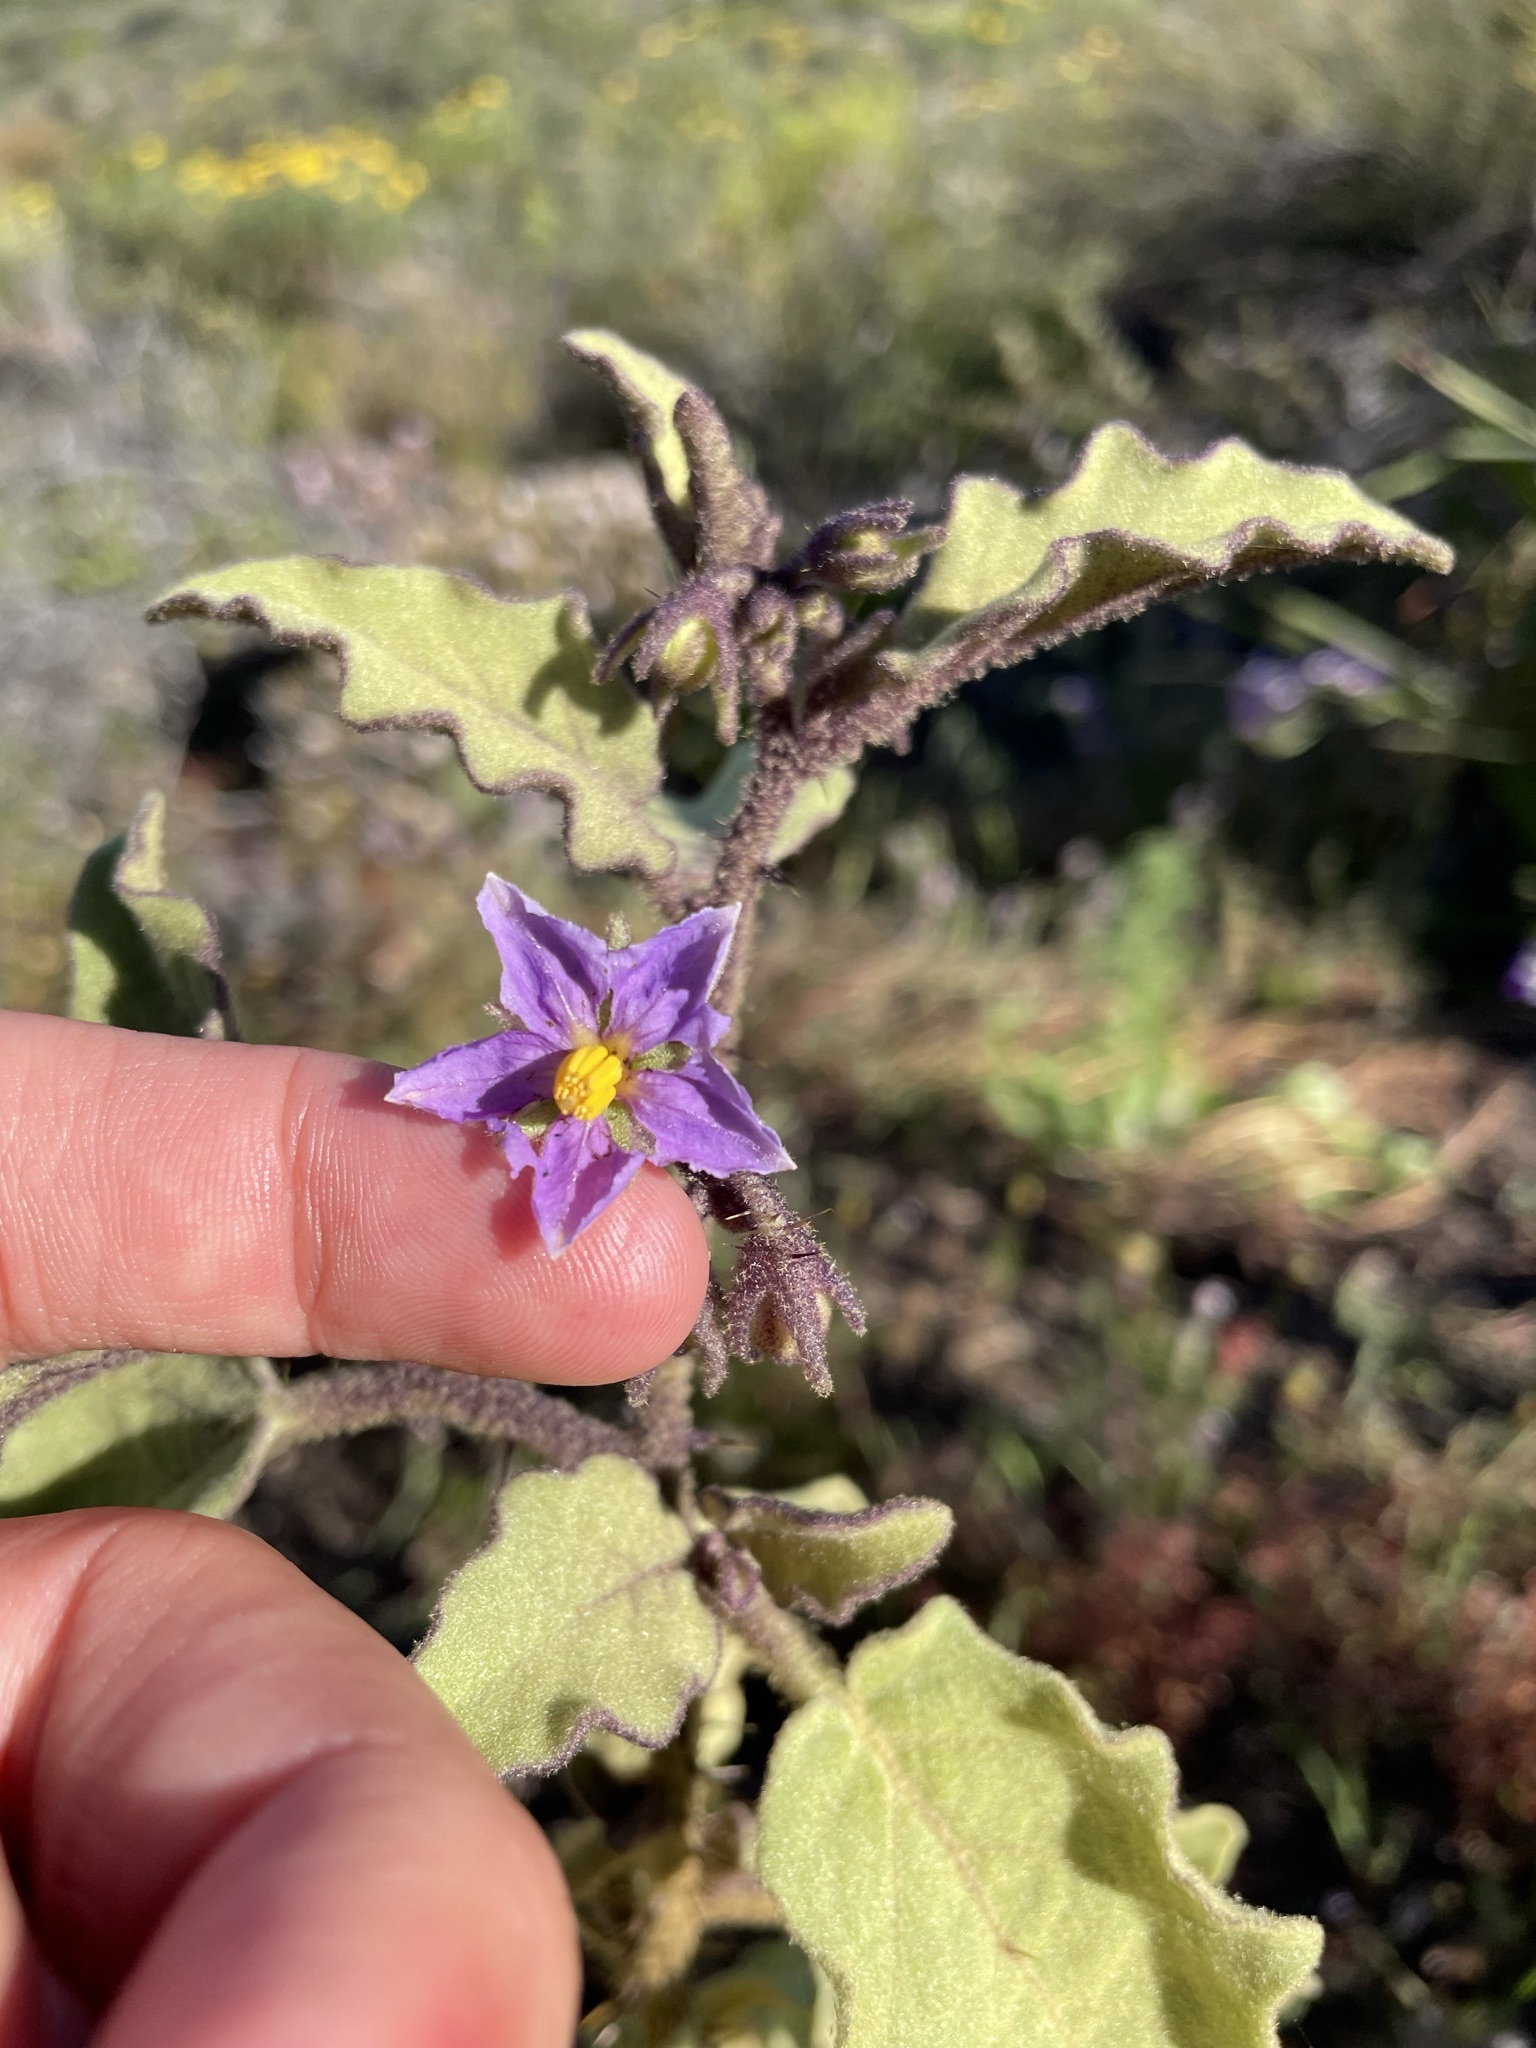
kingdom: Plantae
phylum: Tracheophyta
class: Magnoliopsida
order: Solanales
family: Solanaceae
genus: Solanum
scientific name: Solanum tomentosum
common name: Wild aubergine
